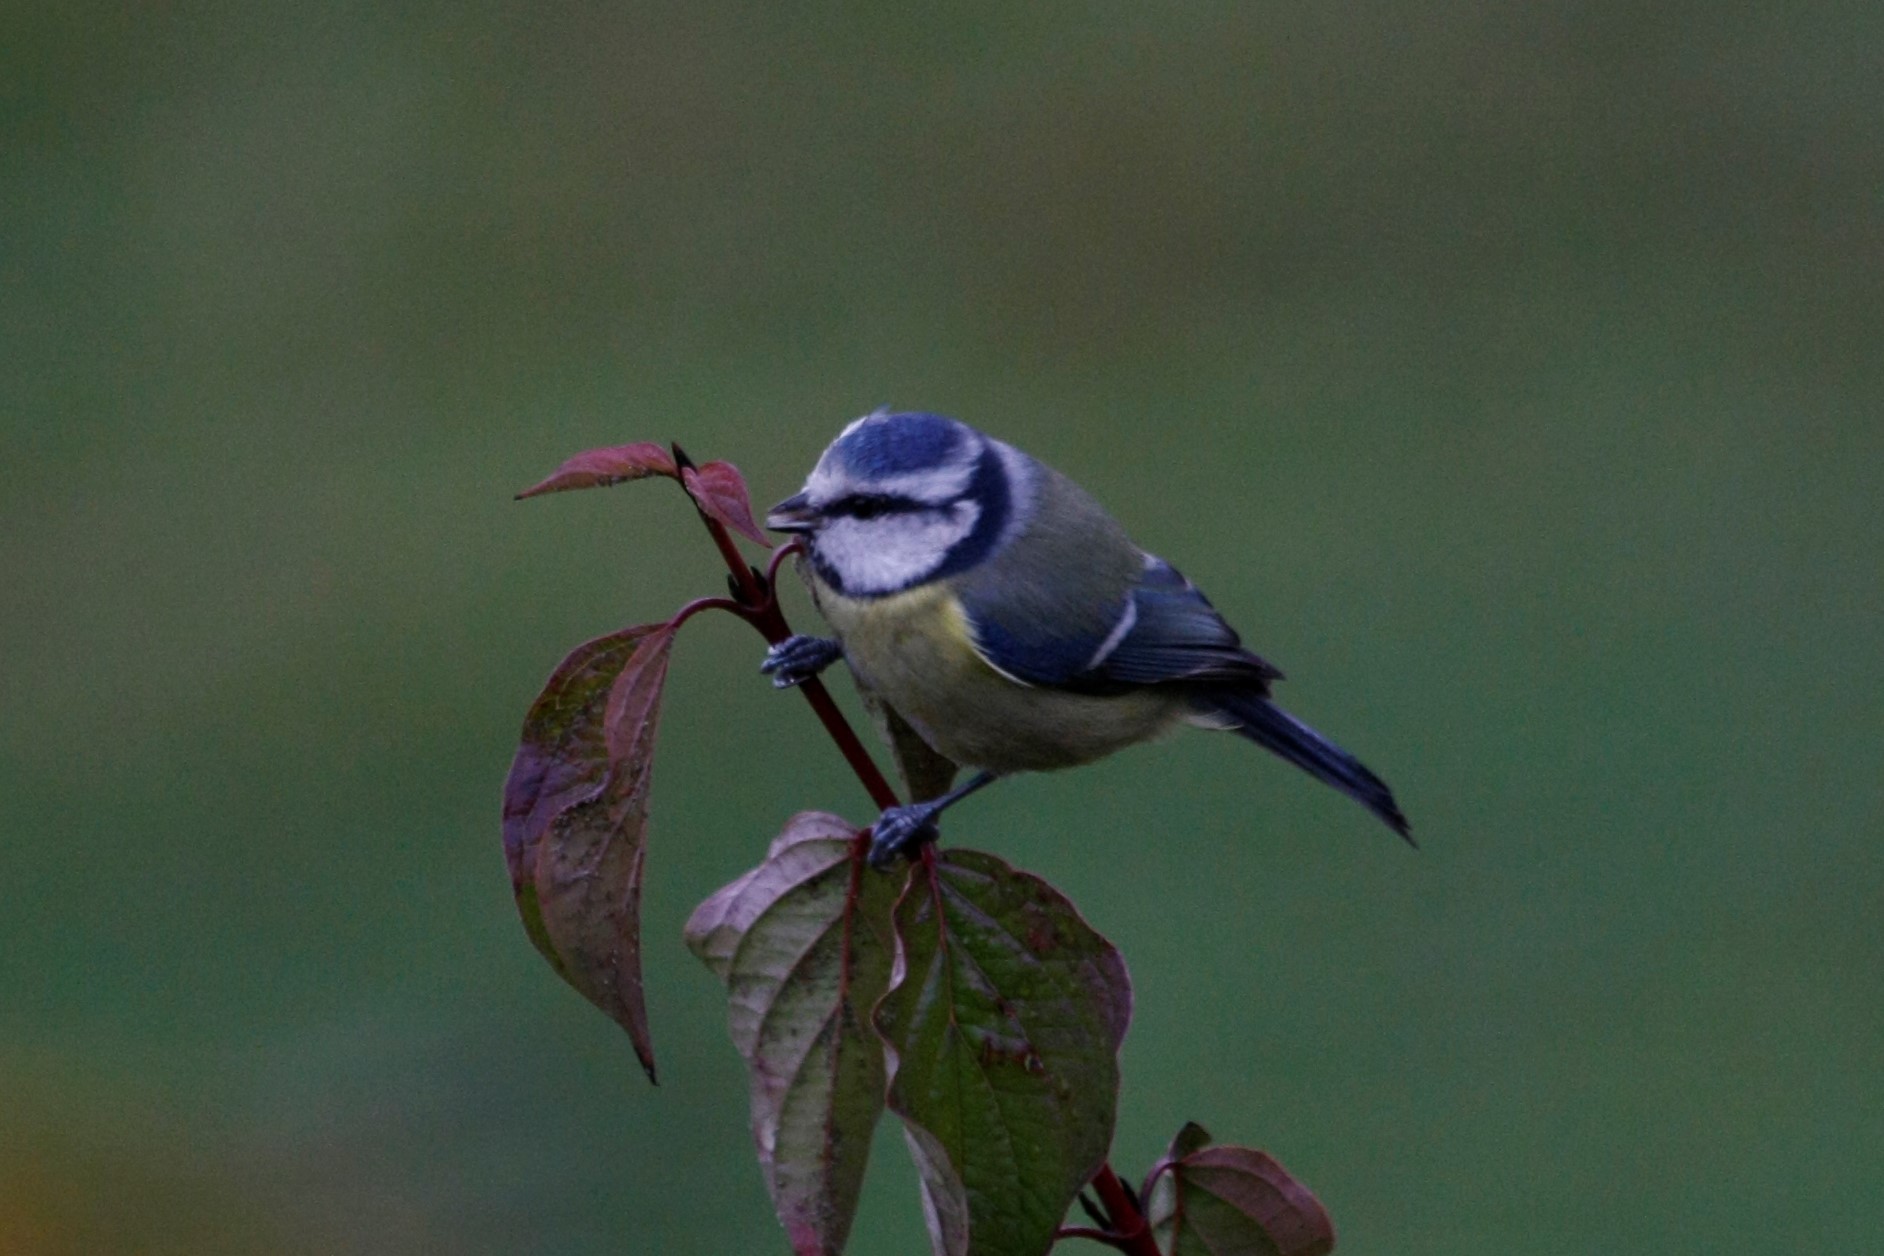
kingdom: Animalia
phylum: Chordata
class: Aves
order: Passeriformes
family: Paridae
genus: Cyanistes
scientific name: Cyanistes caeruleus
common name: Eurasian blue tit
